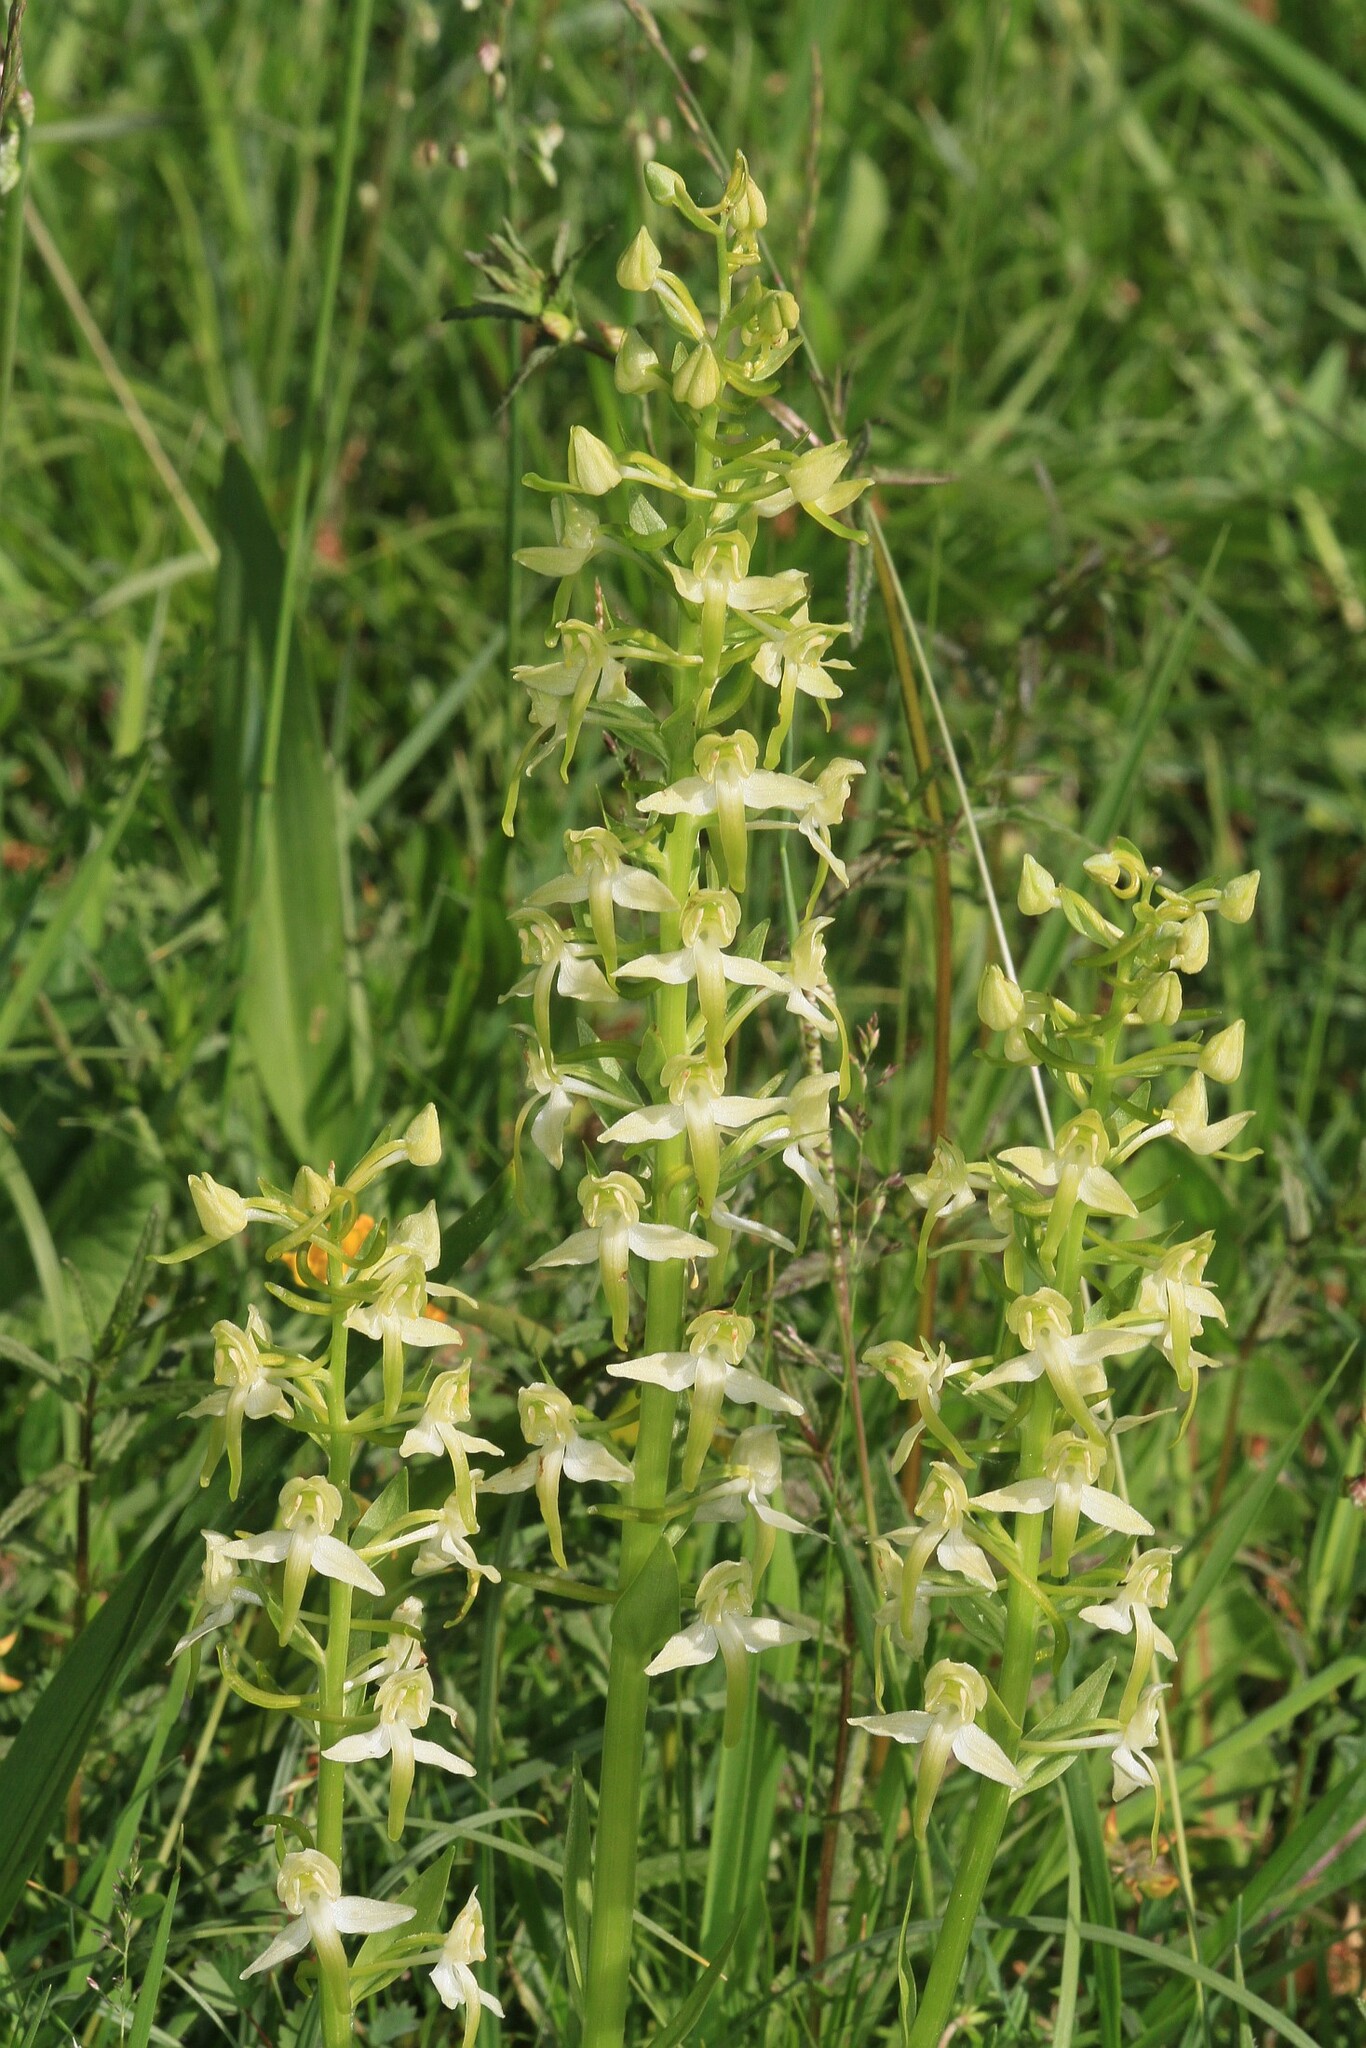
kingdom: Plantae
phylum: Tracheophyta
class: Liliopsida
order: Asparagales
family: Orchidaceae
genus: Platanthera
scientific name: Platanthera chlorantha
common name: Greater butterfly-orchid
